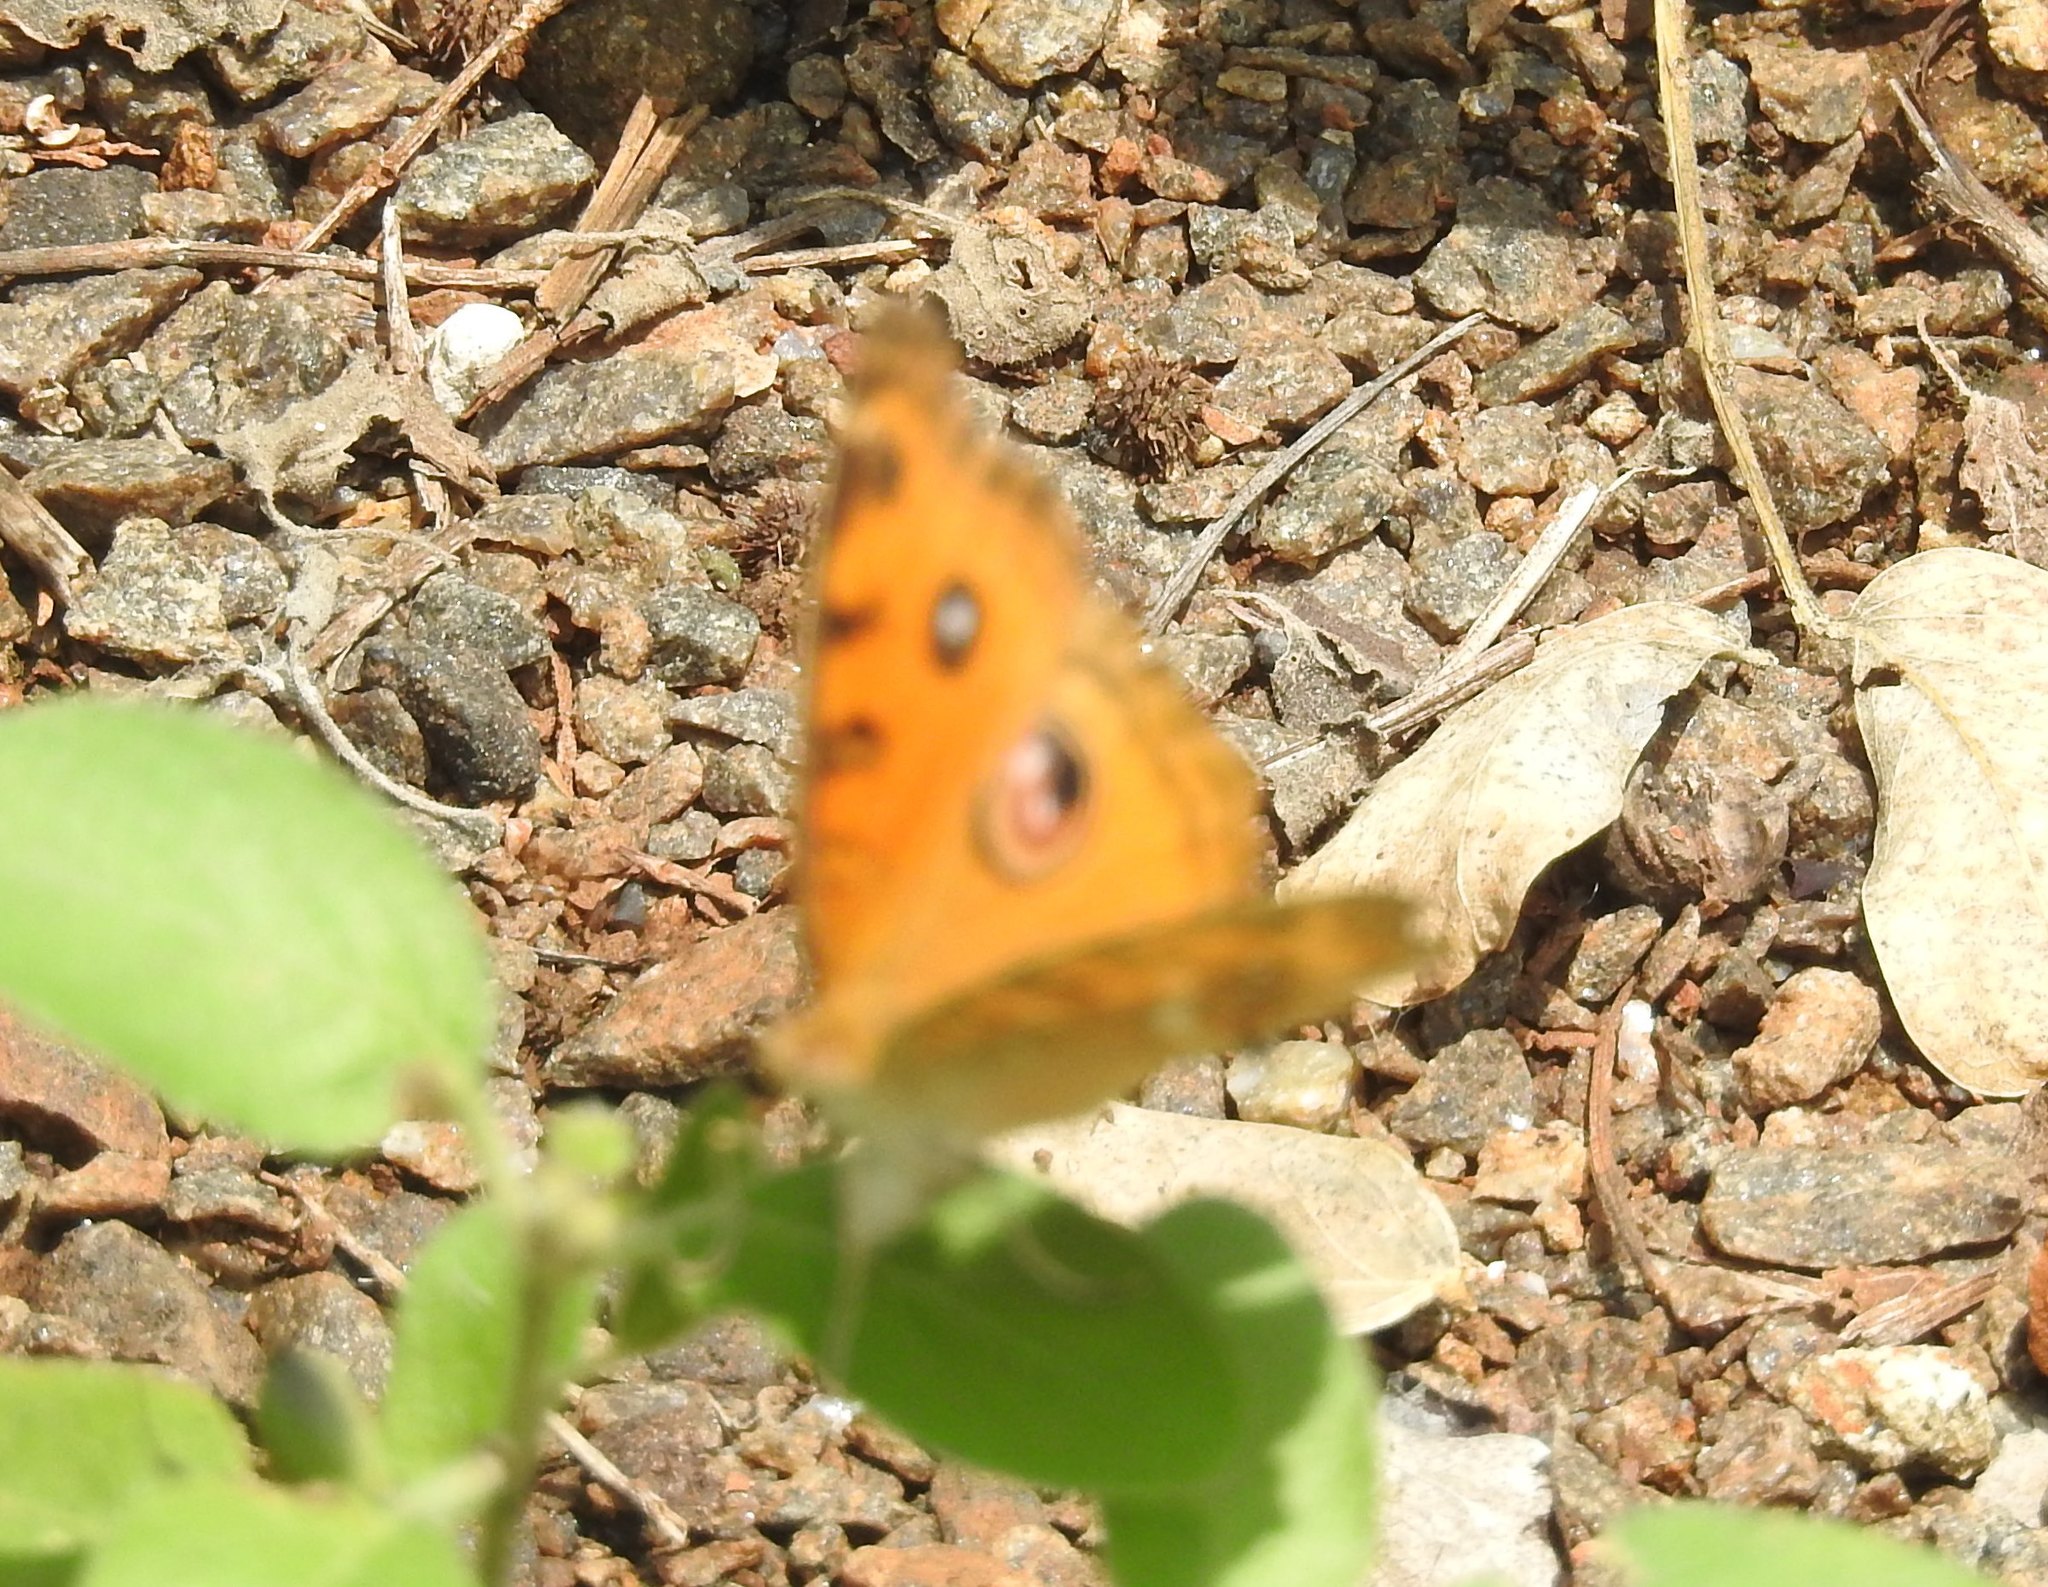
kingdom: Animalia
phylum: Arthropoda
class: Insecta
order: Lepidoptera
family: Nymphalidae
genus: Junonia
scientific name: Junonia almana
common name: Peacock pansy
